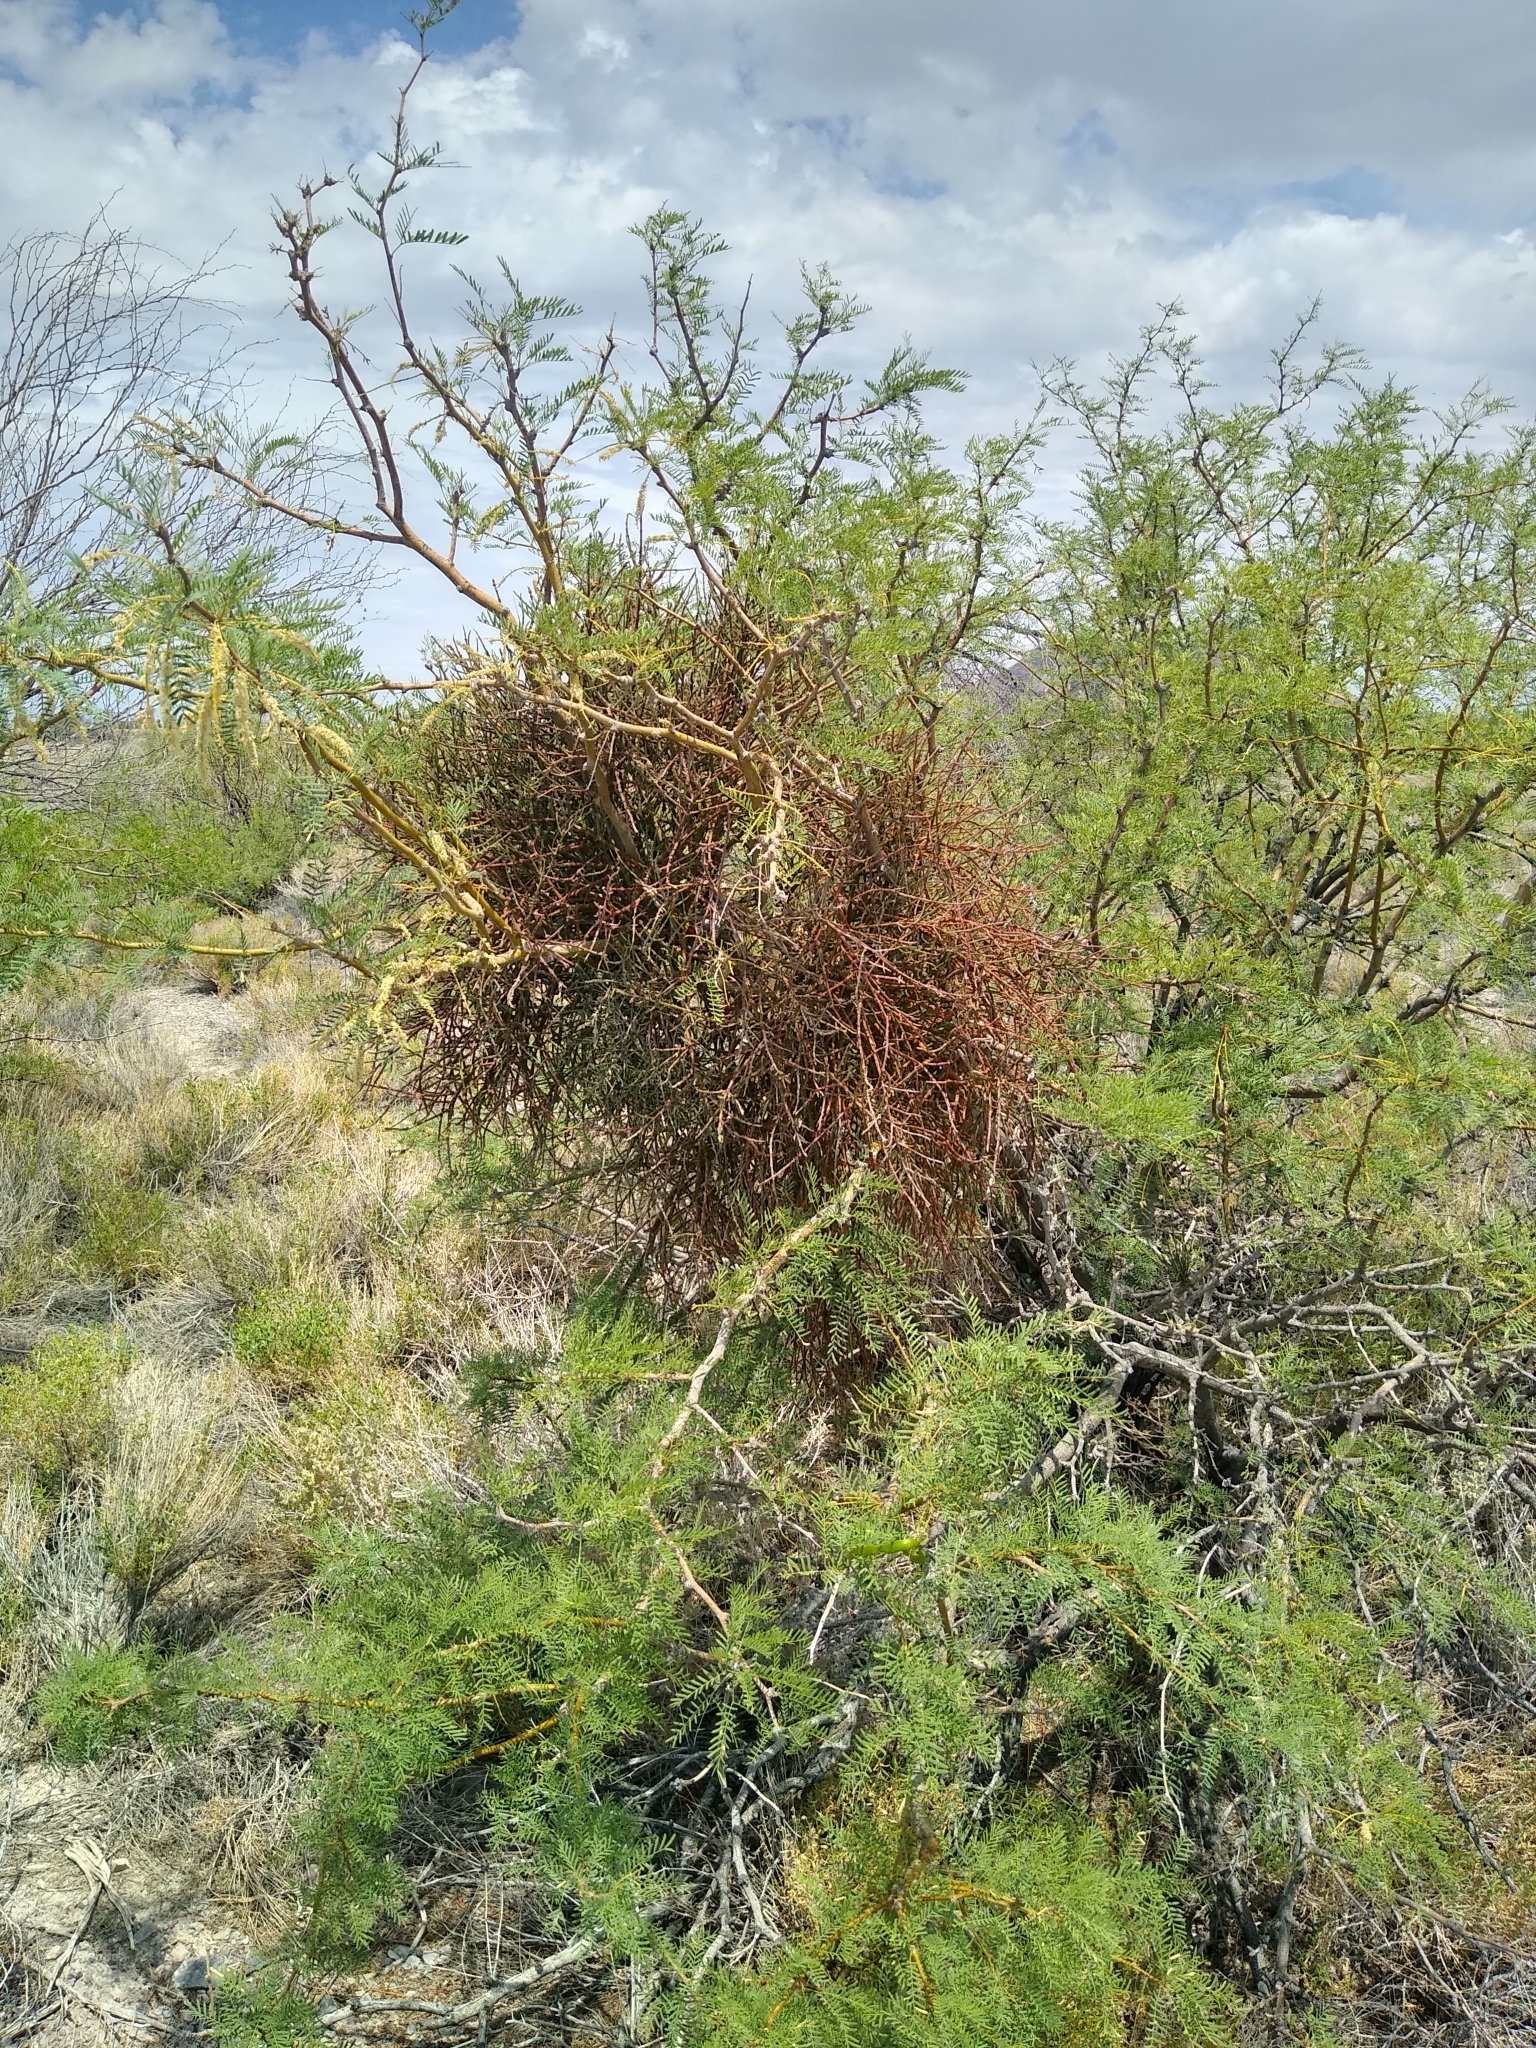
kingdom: Plantae
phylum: Tracheophyta
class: Magnoliopsida
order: Santalales
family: Viscaceae
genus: Phoradendron
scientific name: Phoradendron californicum
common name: Acacia mistletoe
